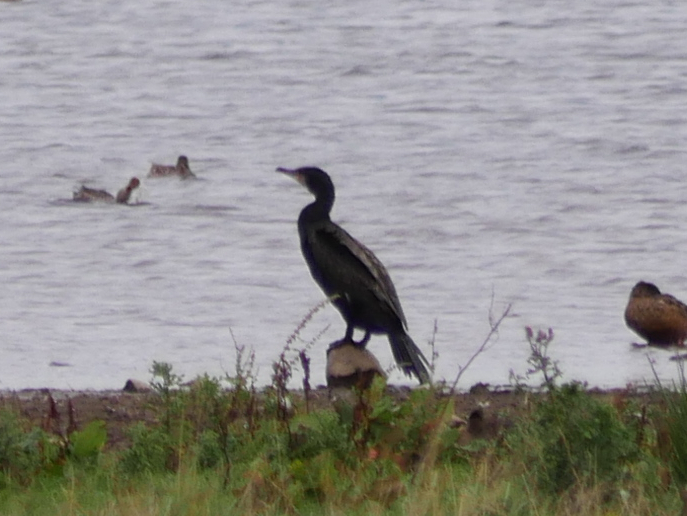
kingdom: Animalia
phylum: Chordata
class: Aves
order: Suliformes
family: Phalacrocoracidae
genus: Phalacrocorax
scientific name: Phalacrocorax carbo
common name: Great cormorant
